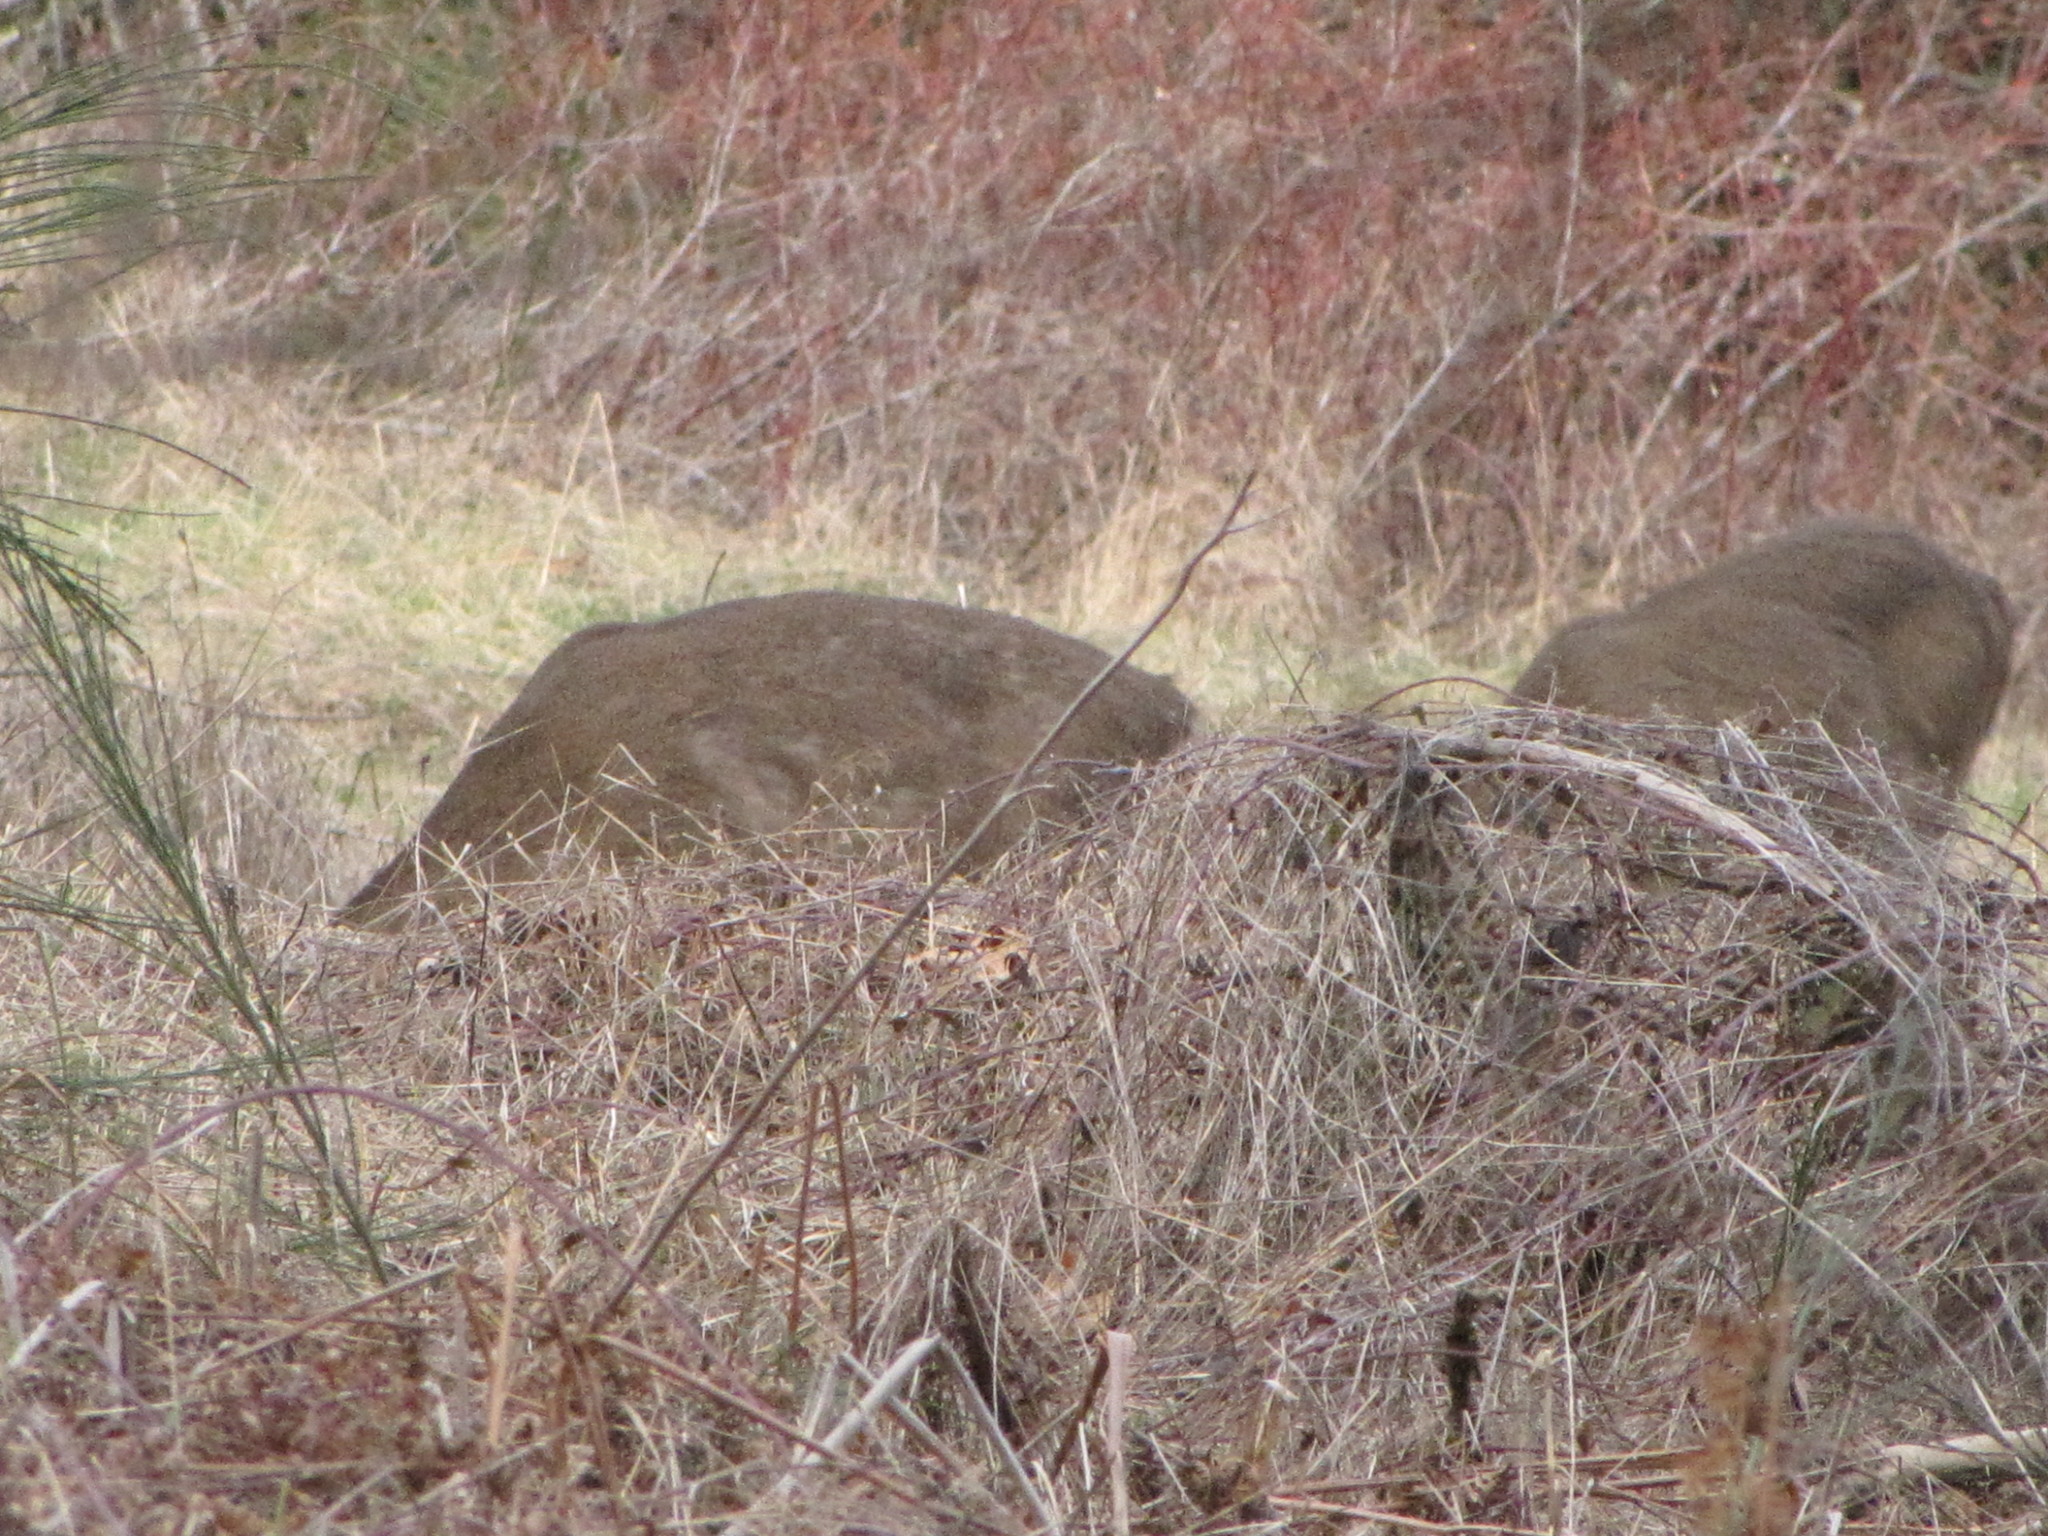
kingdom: Animalia
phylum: Chordata
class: Mammalia
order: Artiodactyla
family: Cervidae
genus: Odocoileus
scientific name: Odocoileus hemionus
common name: Mule deer
